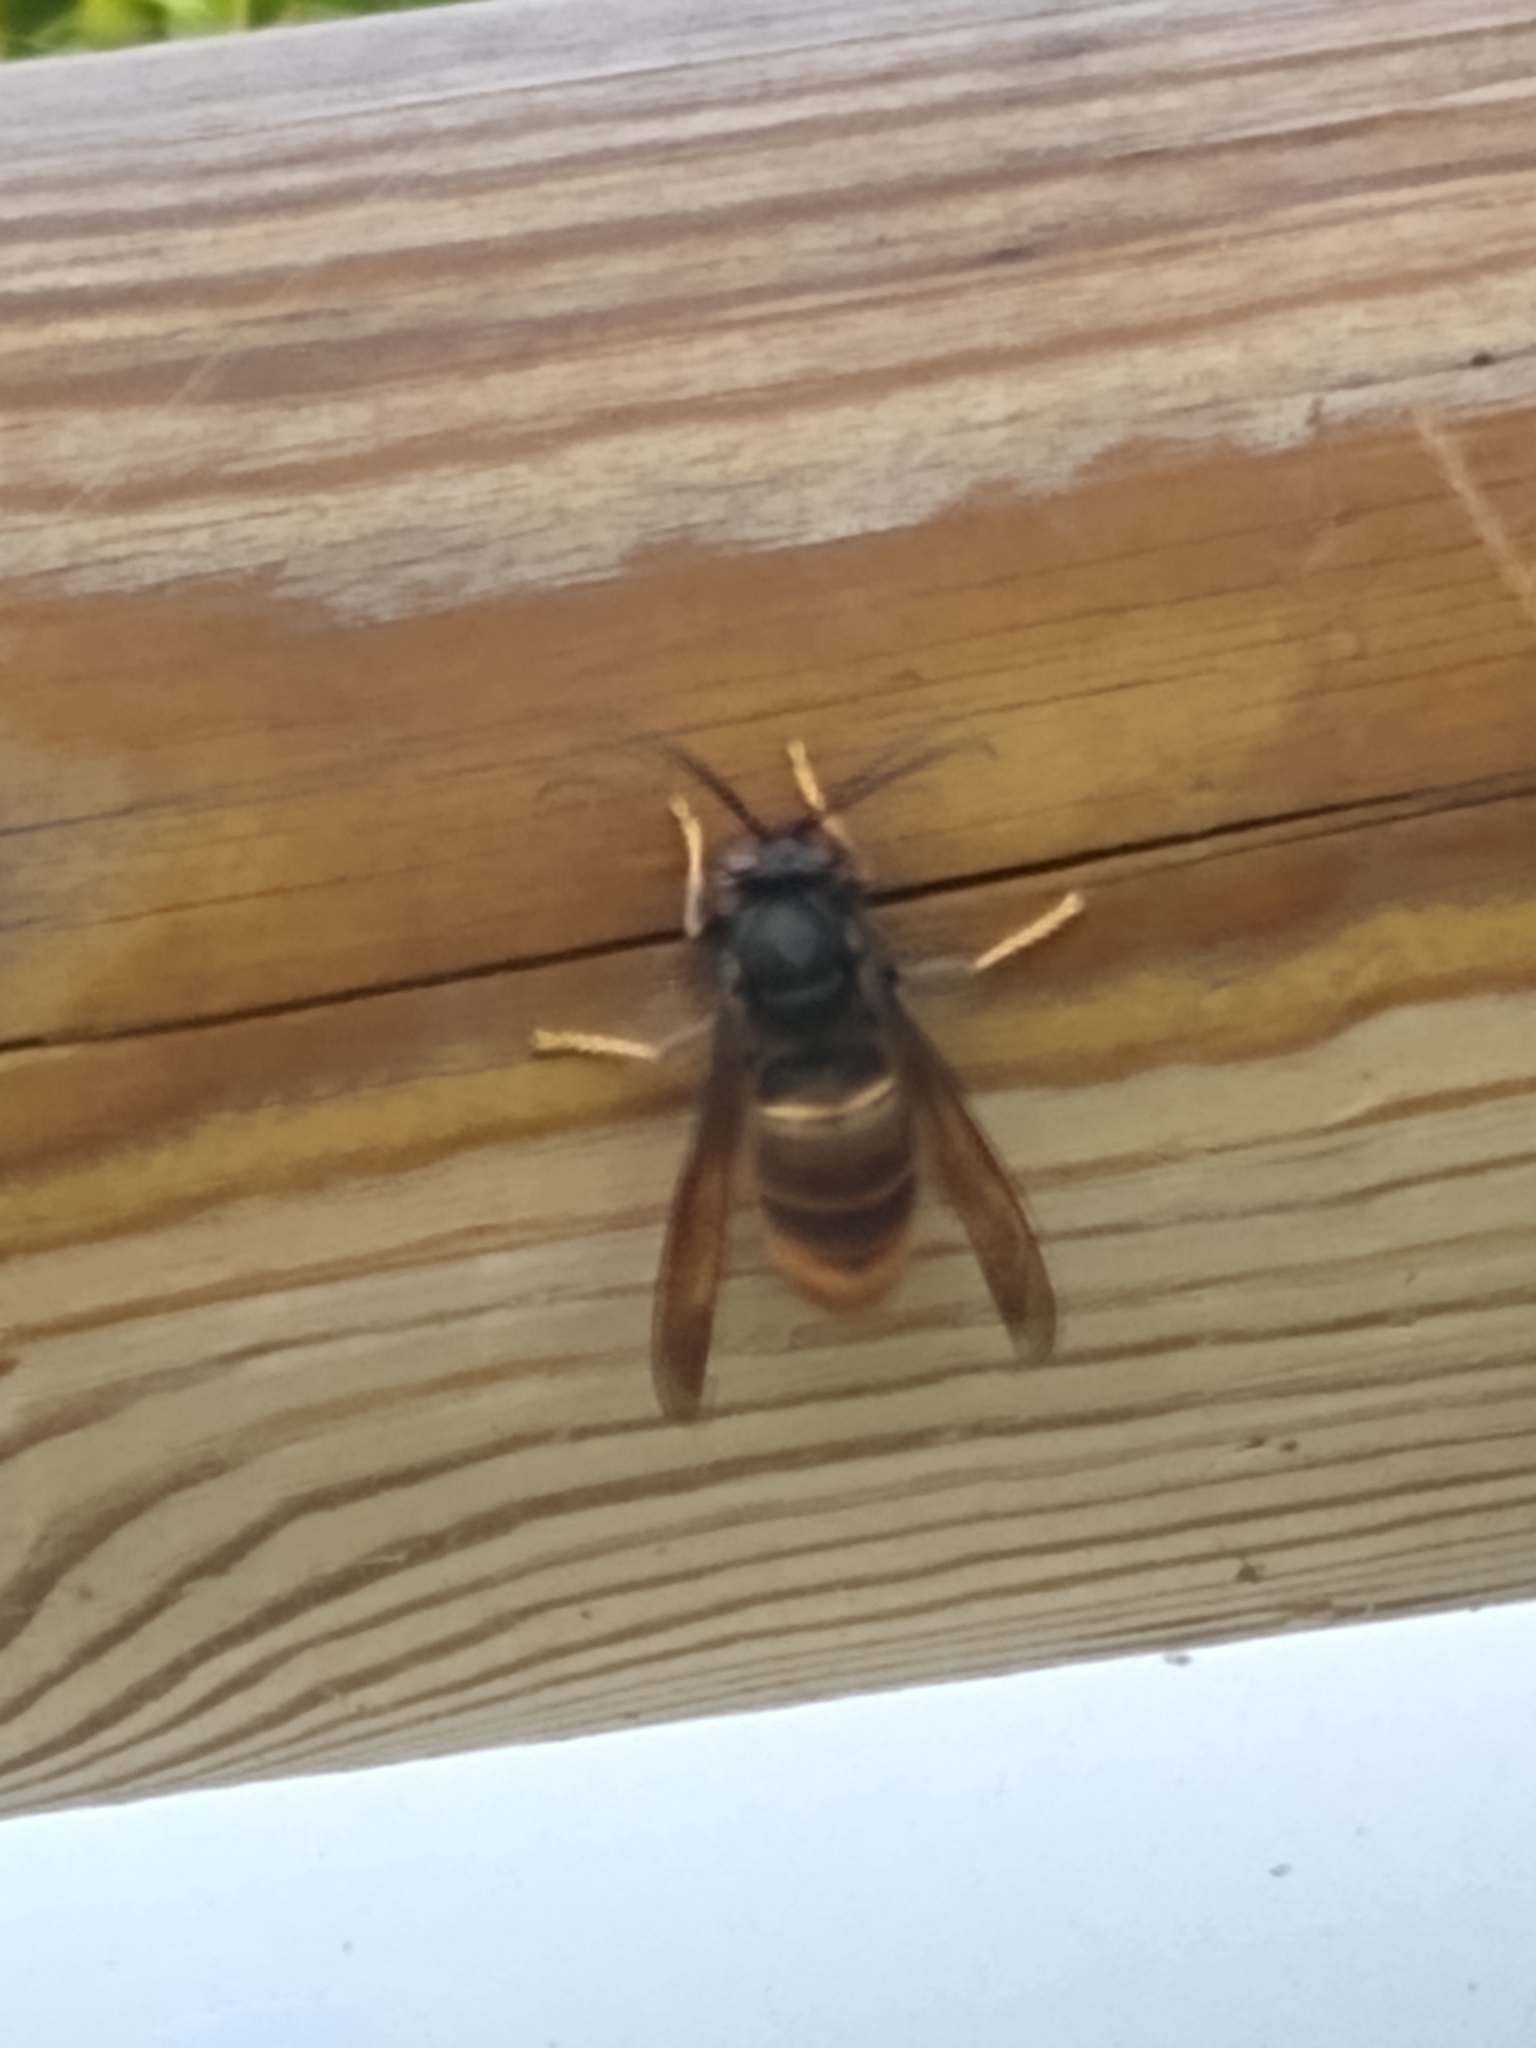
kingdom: Animalia
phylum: Arthropoda
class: Insecta
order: Hymenoptera
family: Vespidae
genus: Vespa
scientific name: Vespa velutina
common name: Asian hornet
